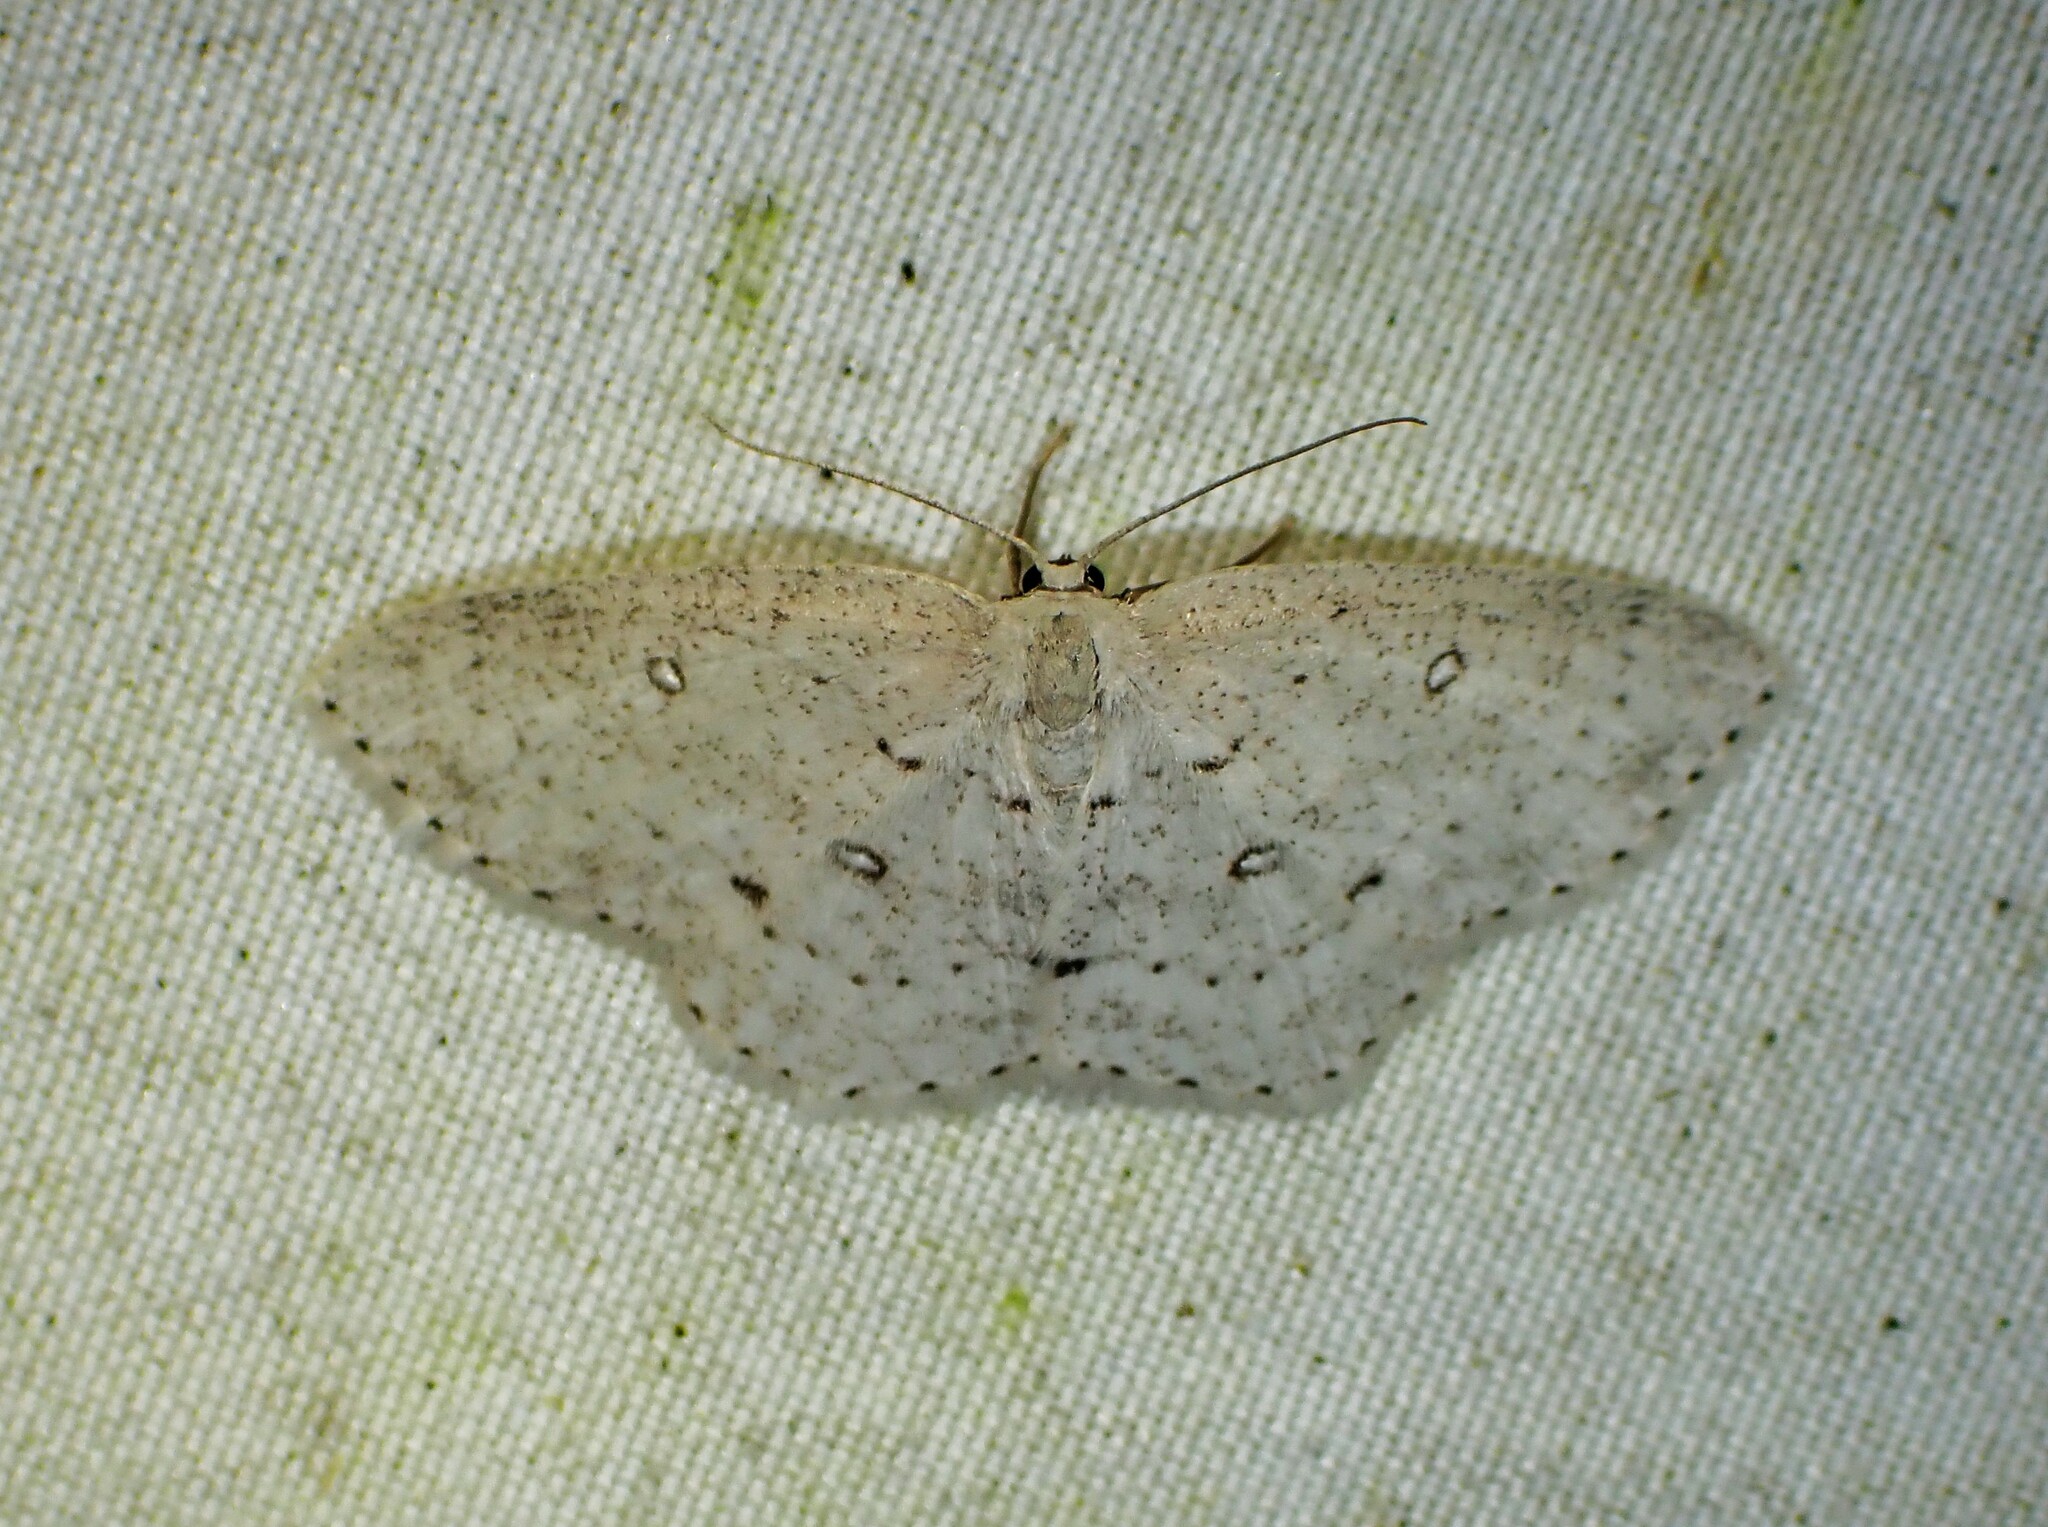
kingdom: Animalia
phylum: Arthropoda
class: Insecta
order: Lepidoptera
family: Geometridae
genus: Cyclophora
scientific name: Cyclophora pendulinaria
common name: Sweet fern geometer
